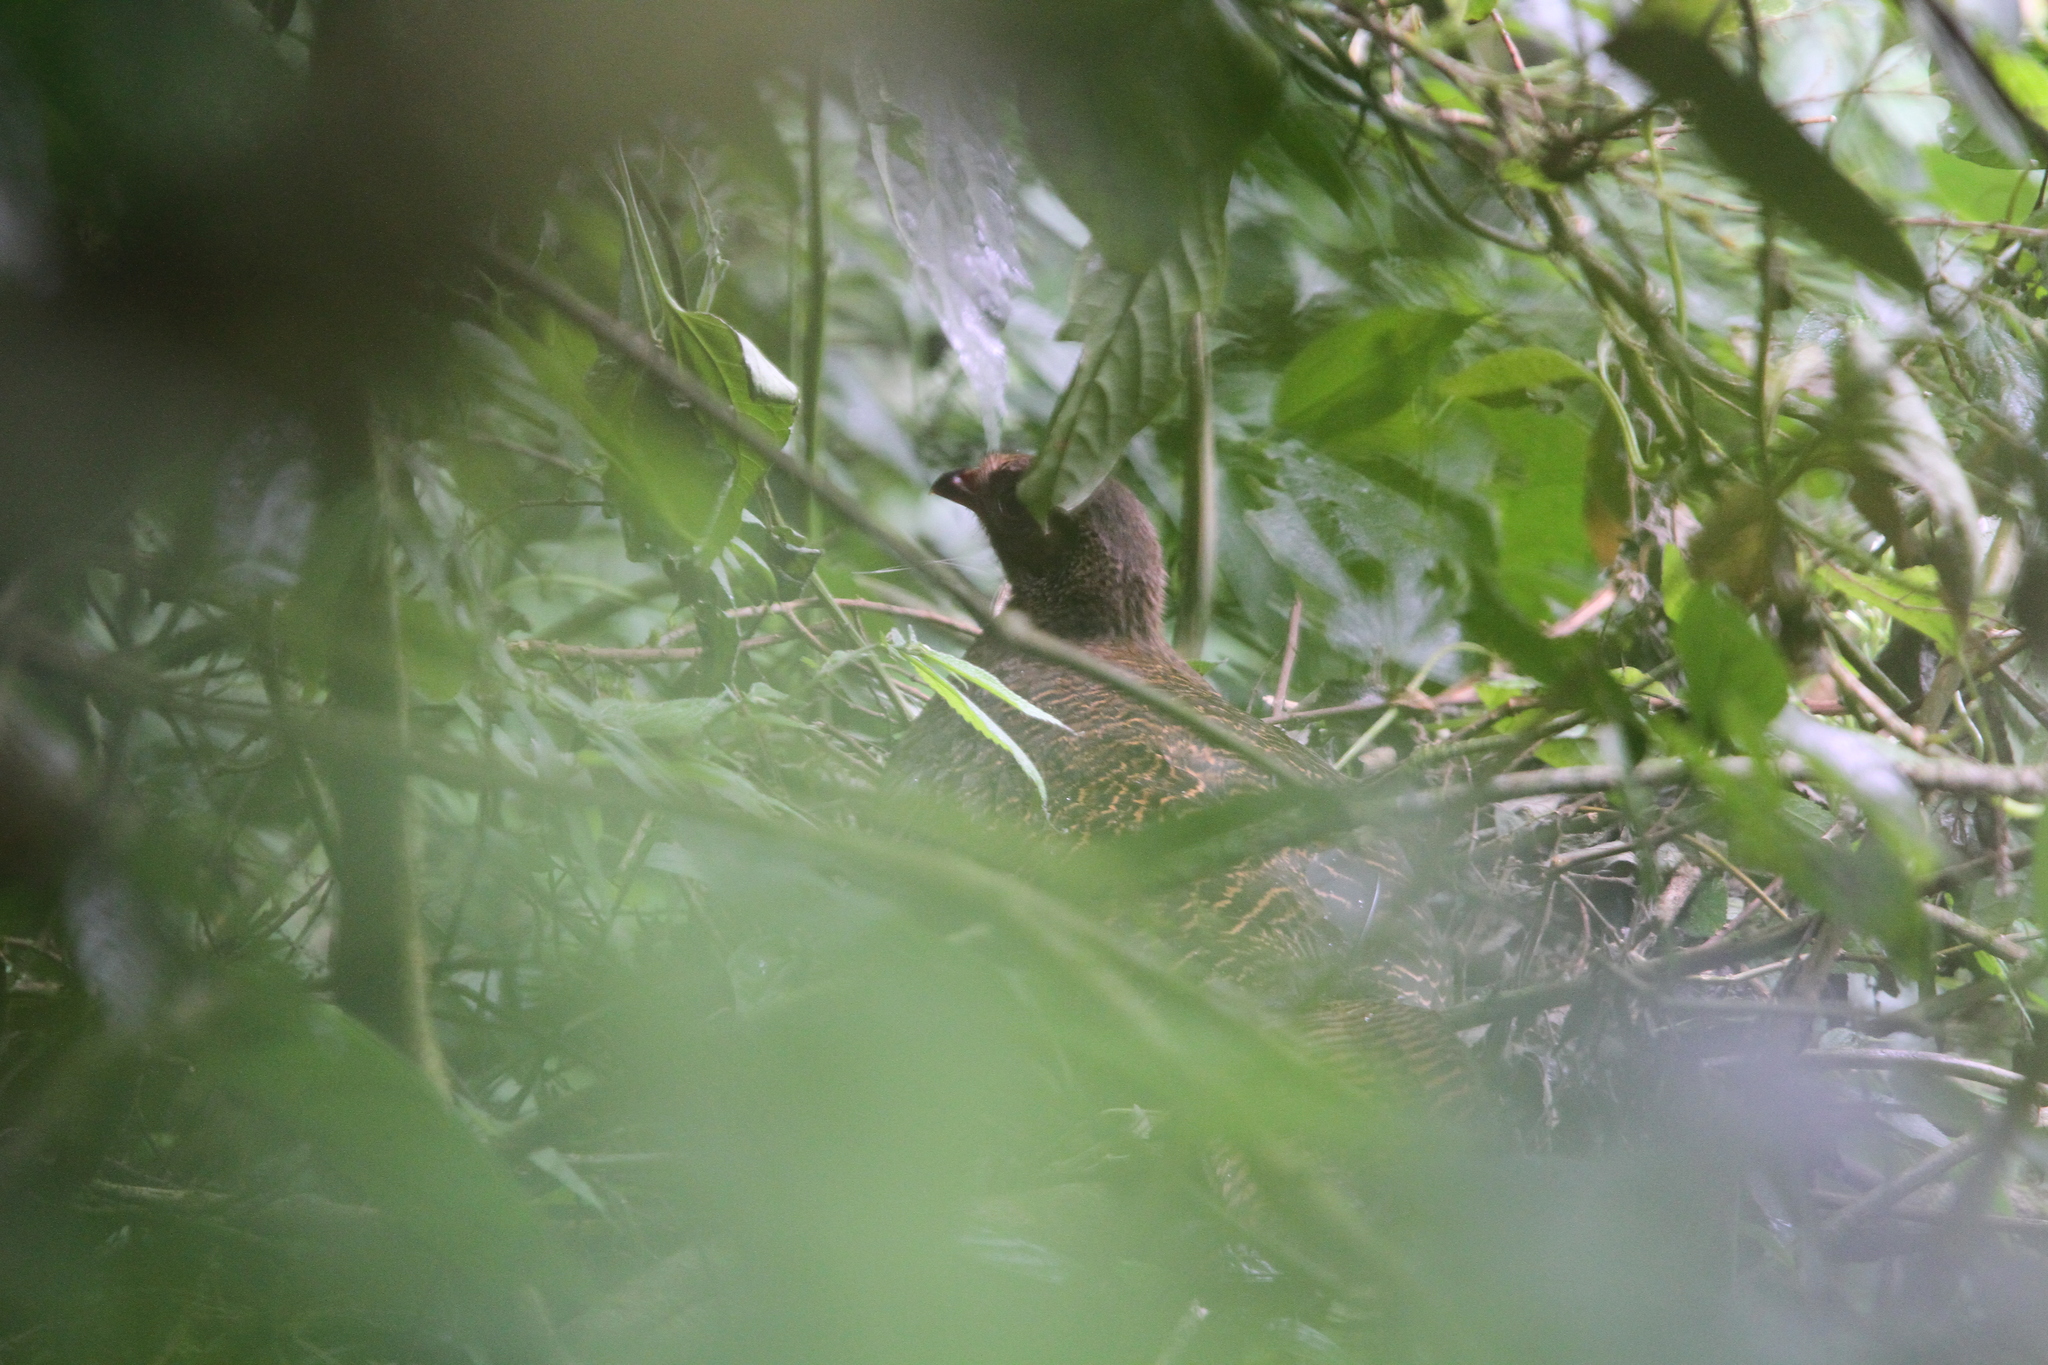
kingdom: Animalia
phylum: Chordata
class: Aves
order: Galliformes
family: Cracidae
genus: Penelopina
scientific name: Penelopina nigra
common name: Highland guan
